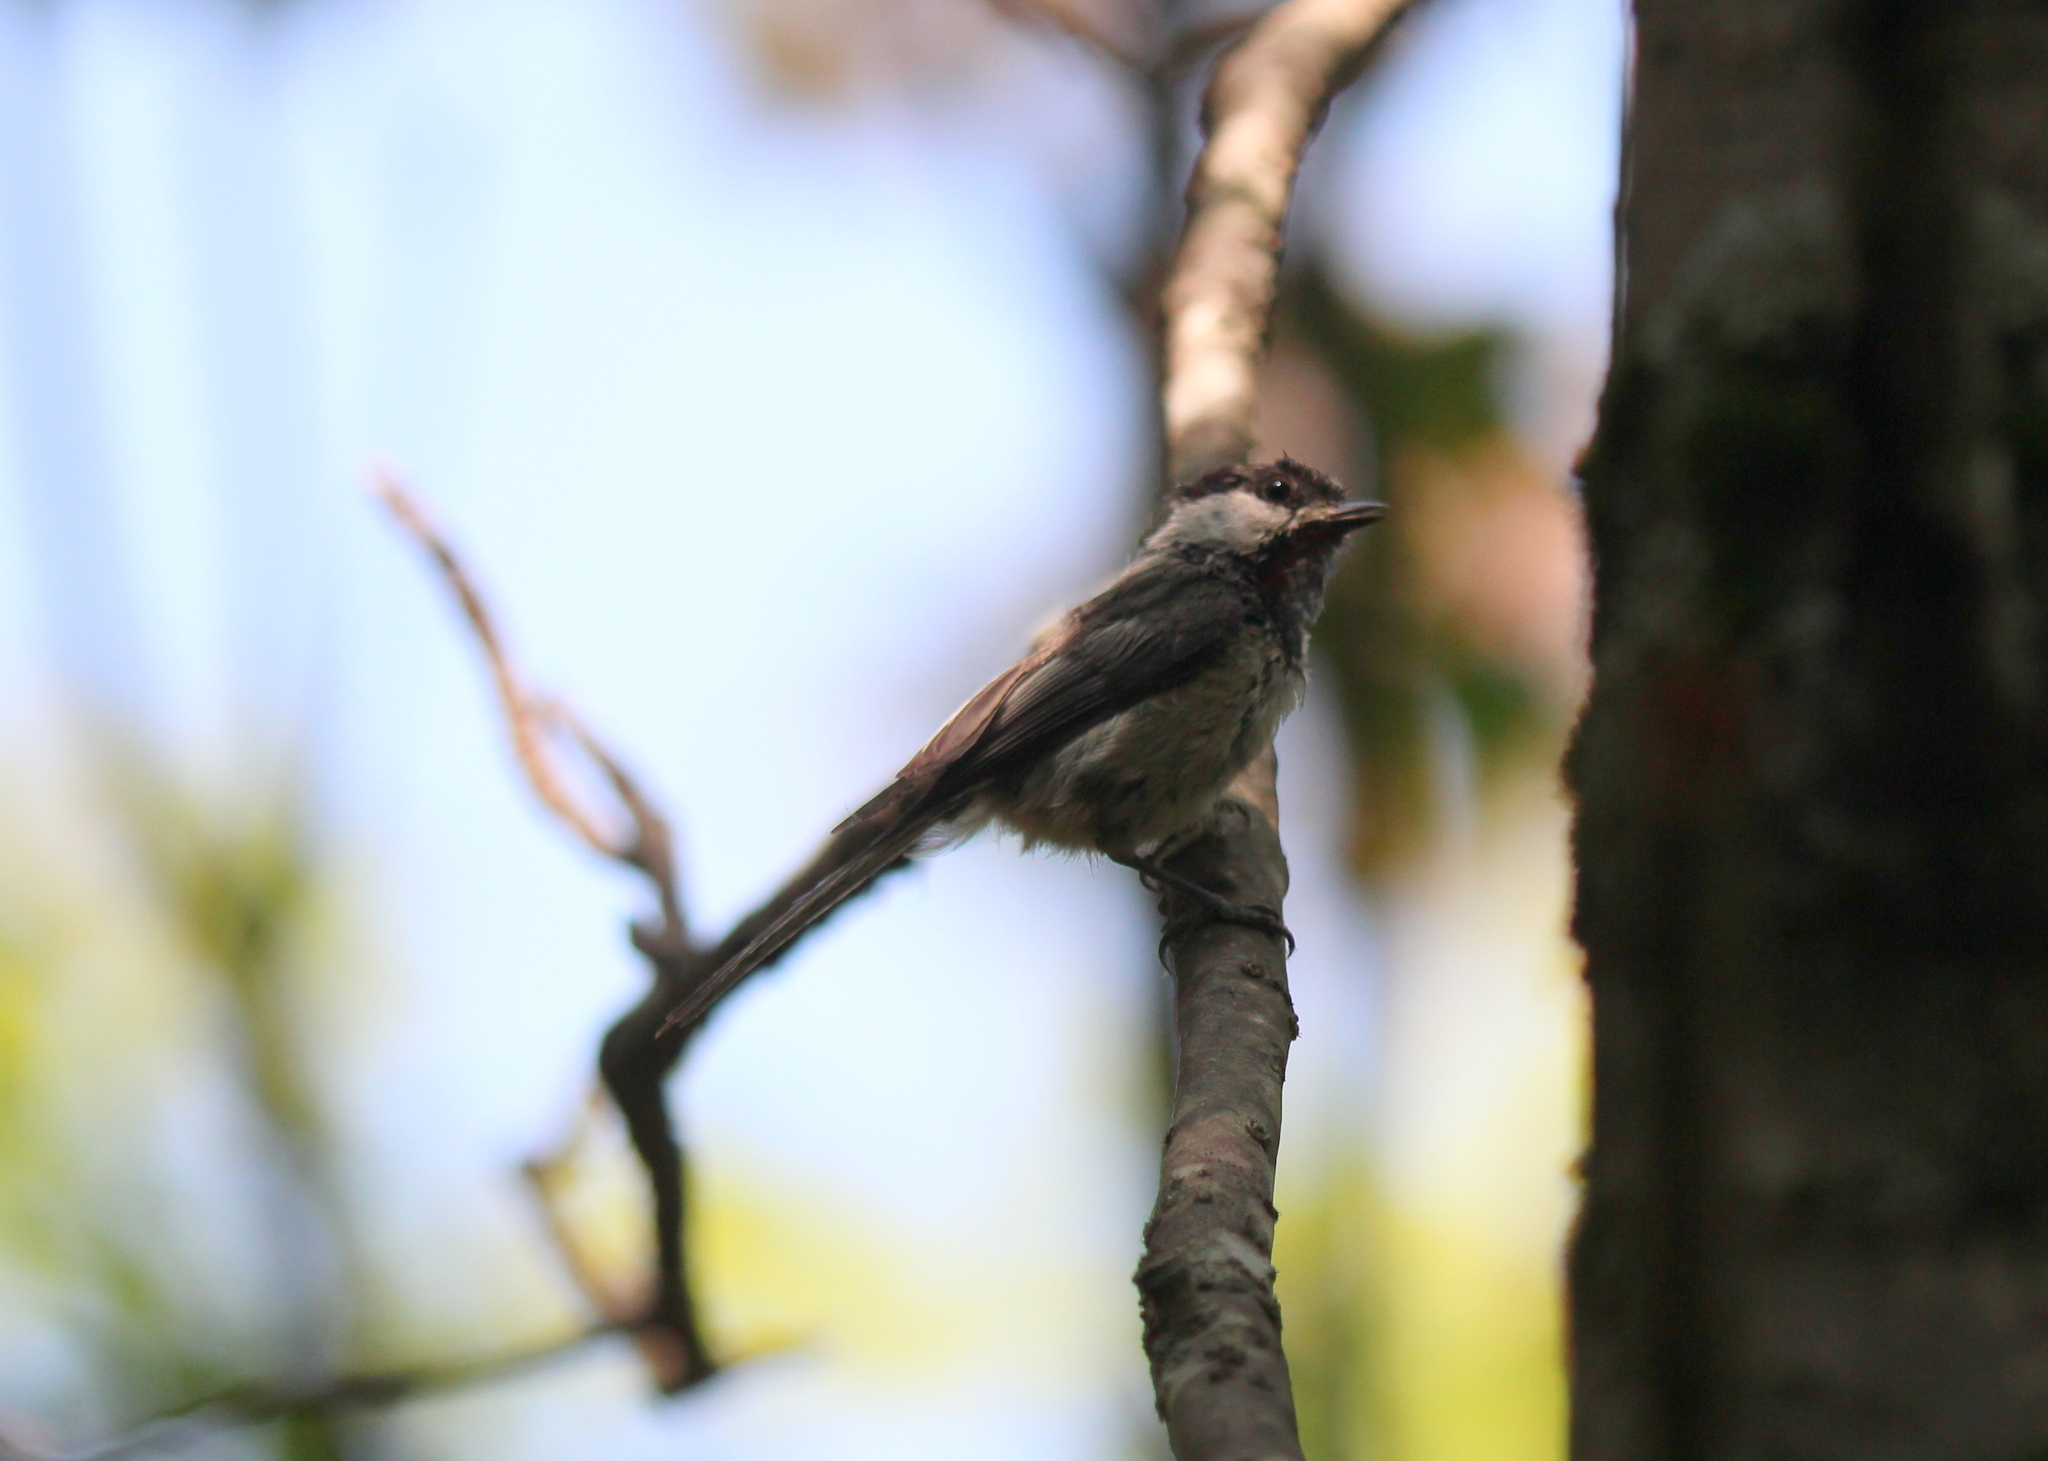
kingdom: Animalia
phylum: Chordata
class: Aves
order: Passeriformes
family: Paridae
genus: Poecile
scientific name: Poecile atricapillus
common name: Black-capped chickadee
